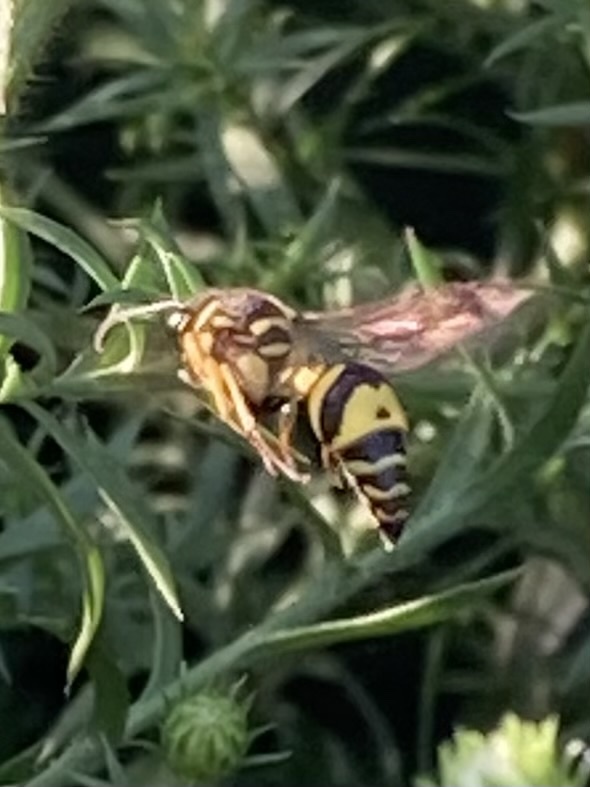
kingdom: Animalia
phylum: Arthropoda
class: Insecta
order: Hymenoptera
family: Vespidae
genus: Eumenes
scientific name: Eumenes mediterraneus
